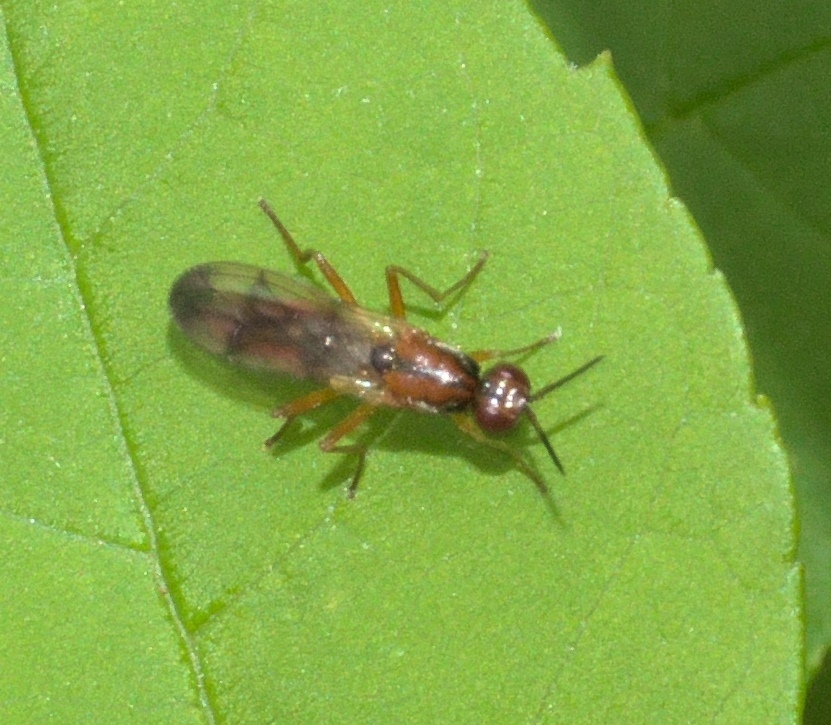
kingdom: Animalia
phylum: Arthropoda
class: Insecta
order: Diptera
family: Psilidae
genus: Loxocera
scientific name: Loxocera cylindrica
